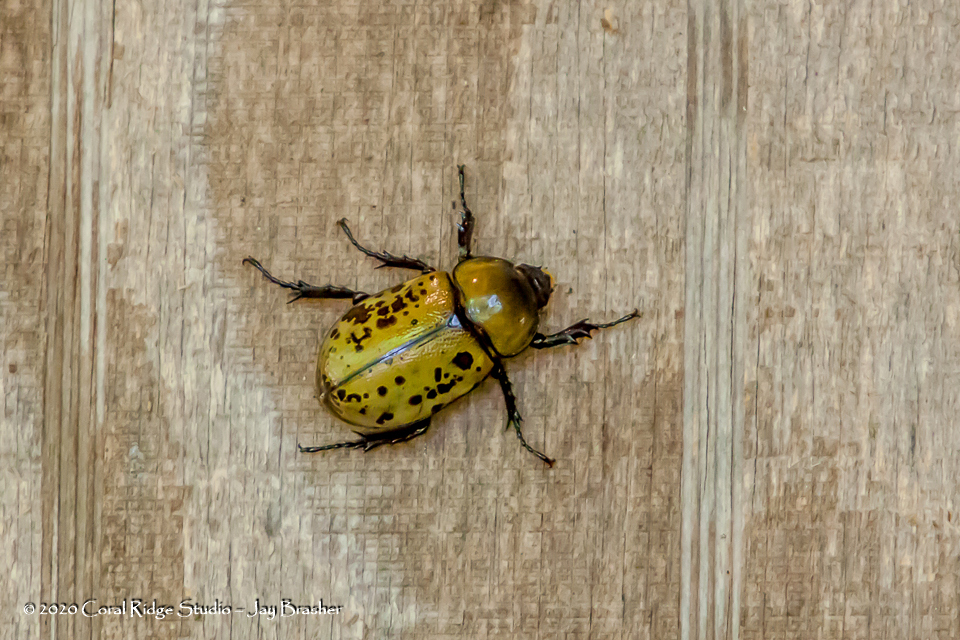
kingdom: Animalia
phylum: Arthropoda
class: Insecta
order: Coleoptera
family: Scarabaeidae
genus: Dynastes
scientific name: Dynastes tityus
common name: Eastern hercules beetle
